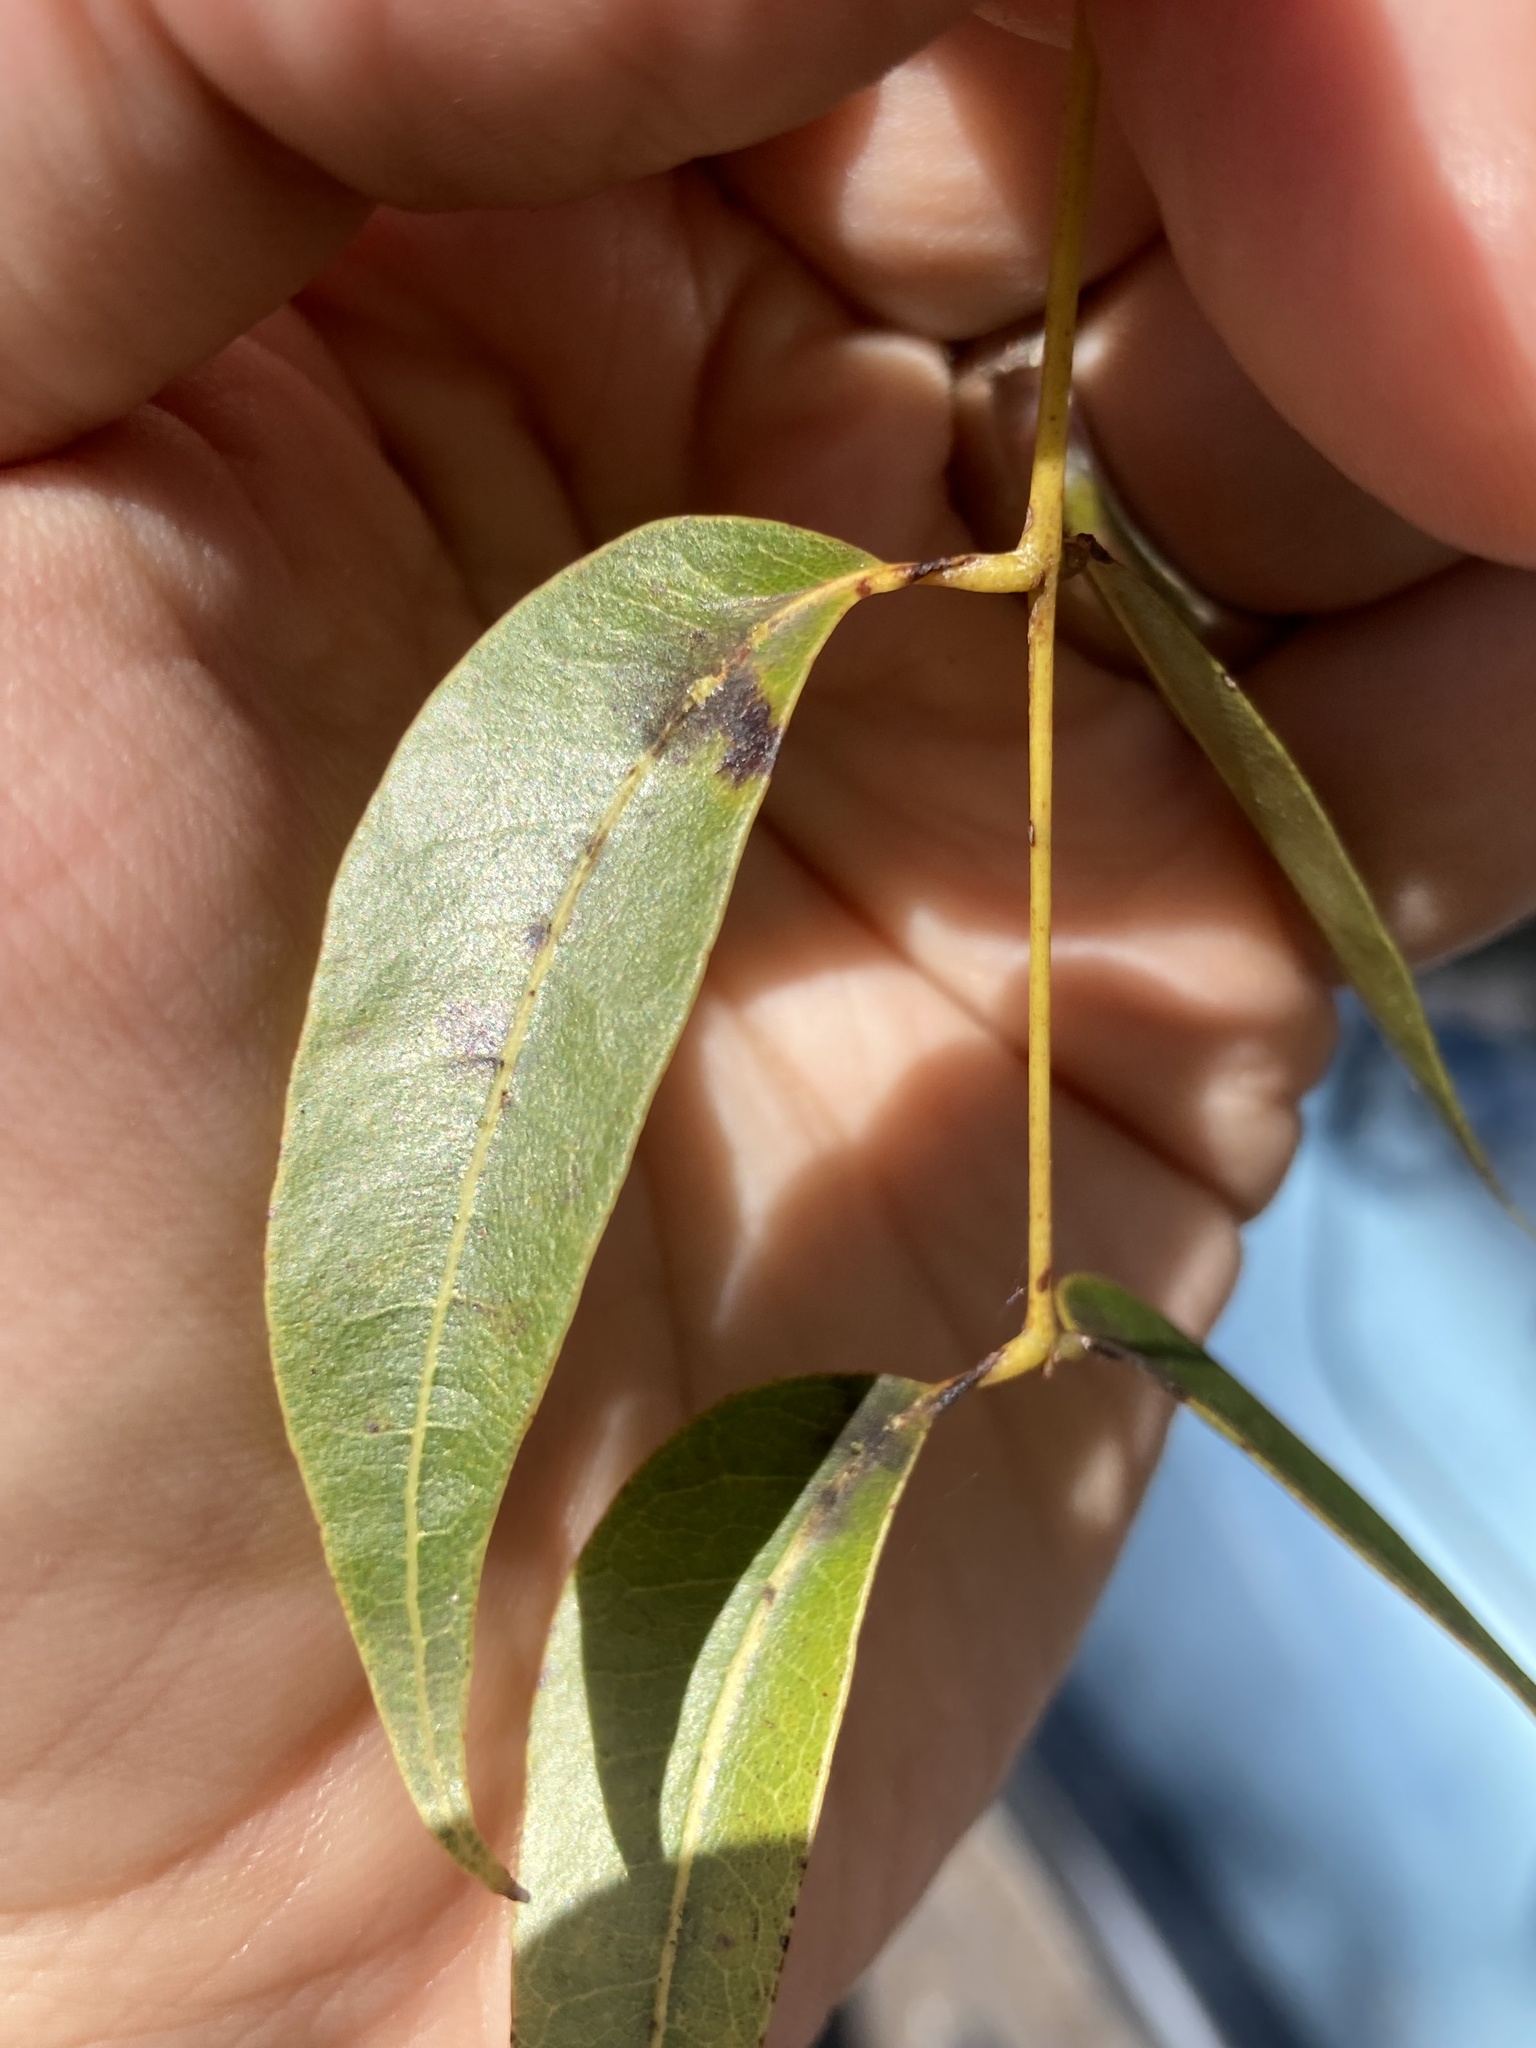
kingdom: Plantae
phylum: Tracheophyta
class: Magnoliopsida
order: Sapindales
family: Meliaceae
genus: Swietenia
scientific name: Swietenia mahagoni
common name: West indian mahogany
